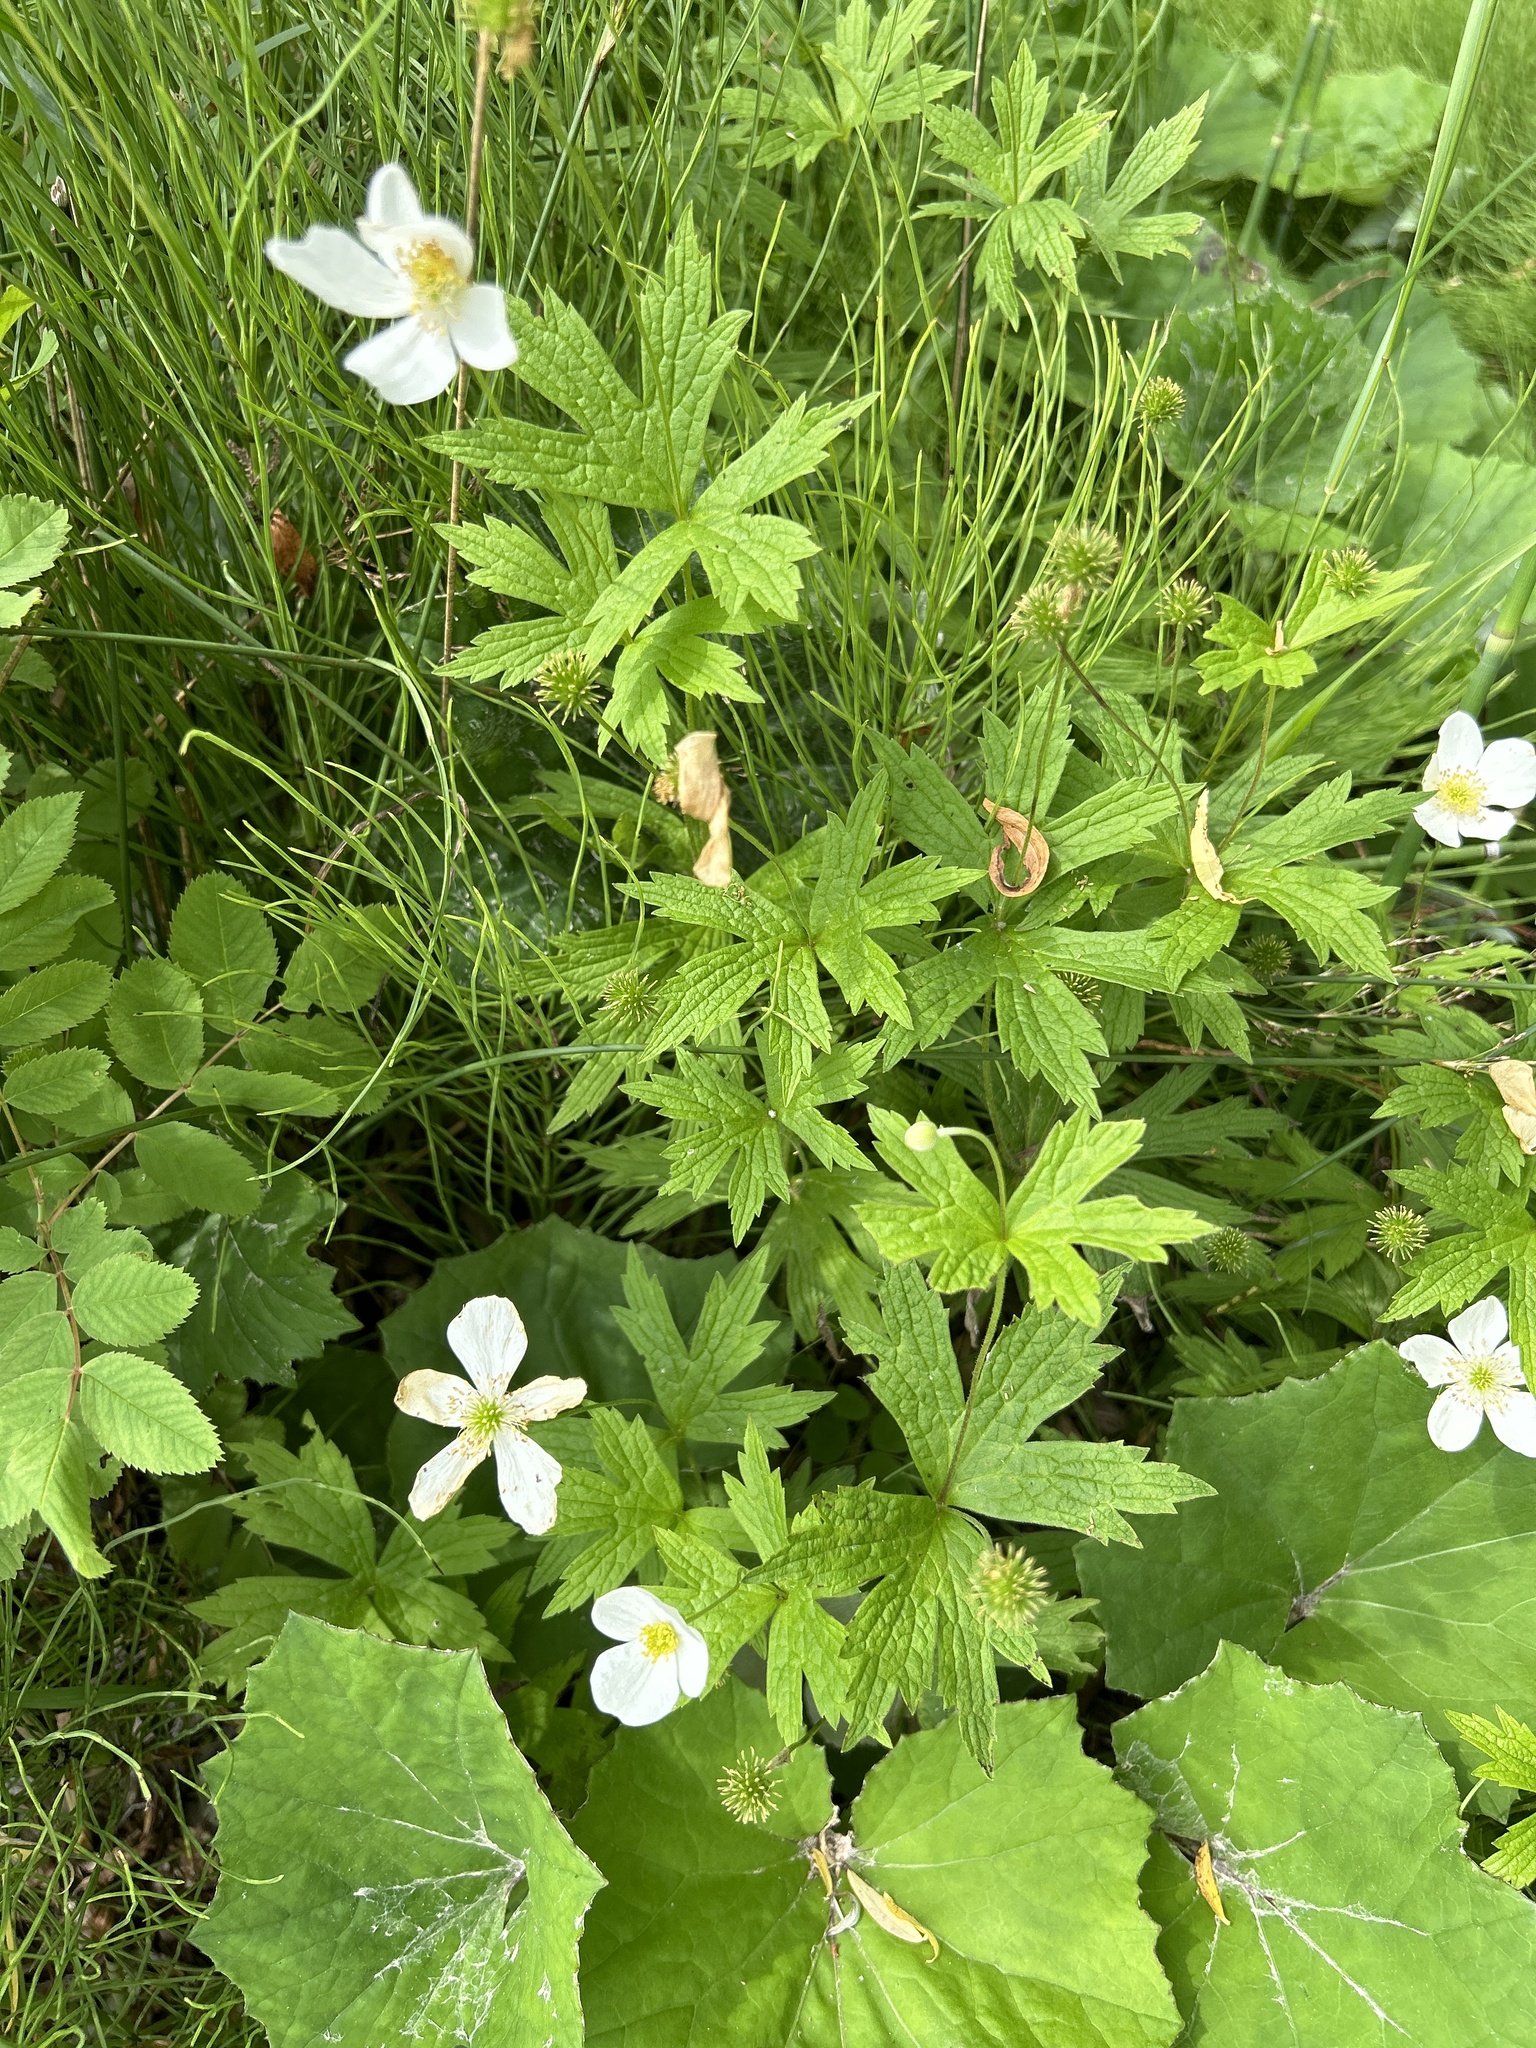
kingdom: Plantae
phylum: Tracheophyta
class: Magnoliopsida
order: Ranunculales
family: Ranunculaceae
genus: Anemonastrum
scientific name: Anemonastrum canadense
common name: Canada anemone
